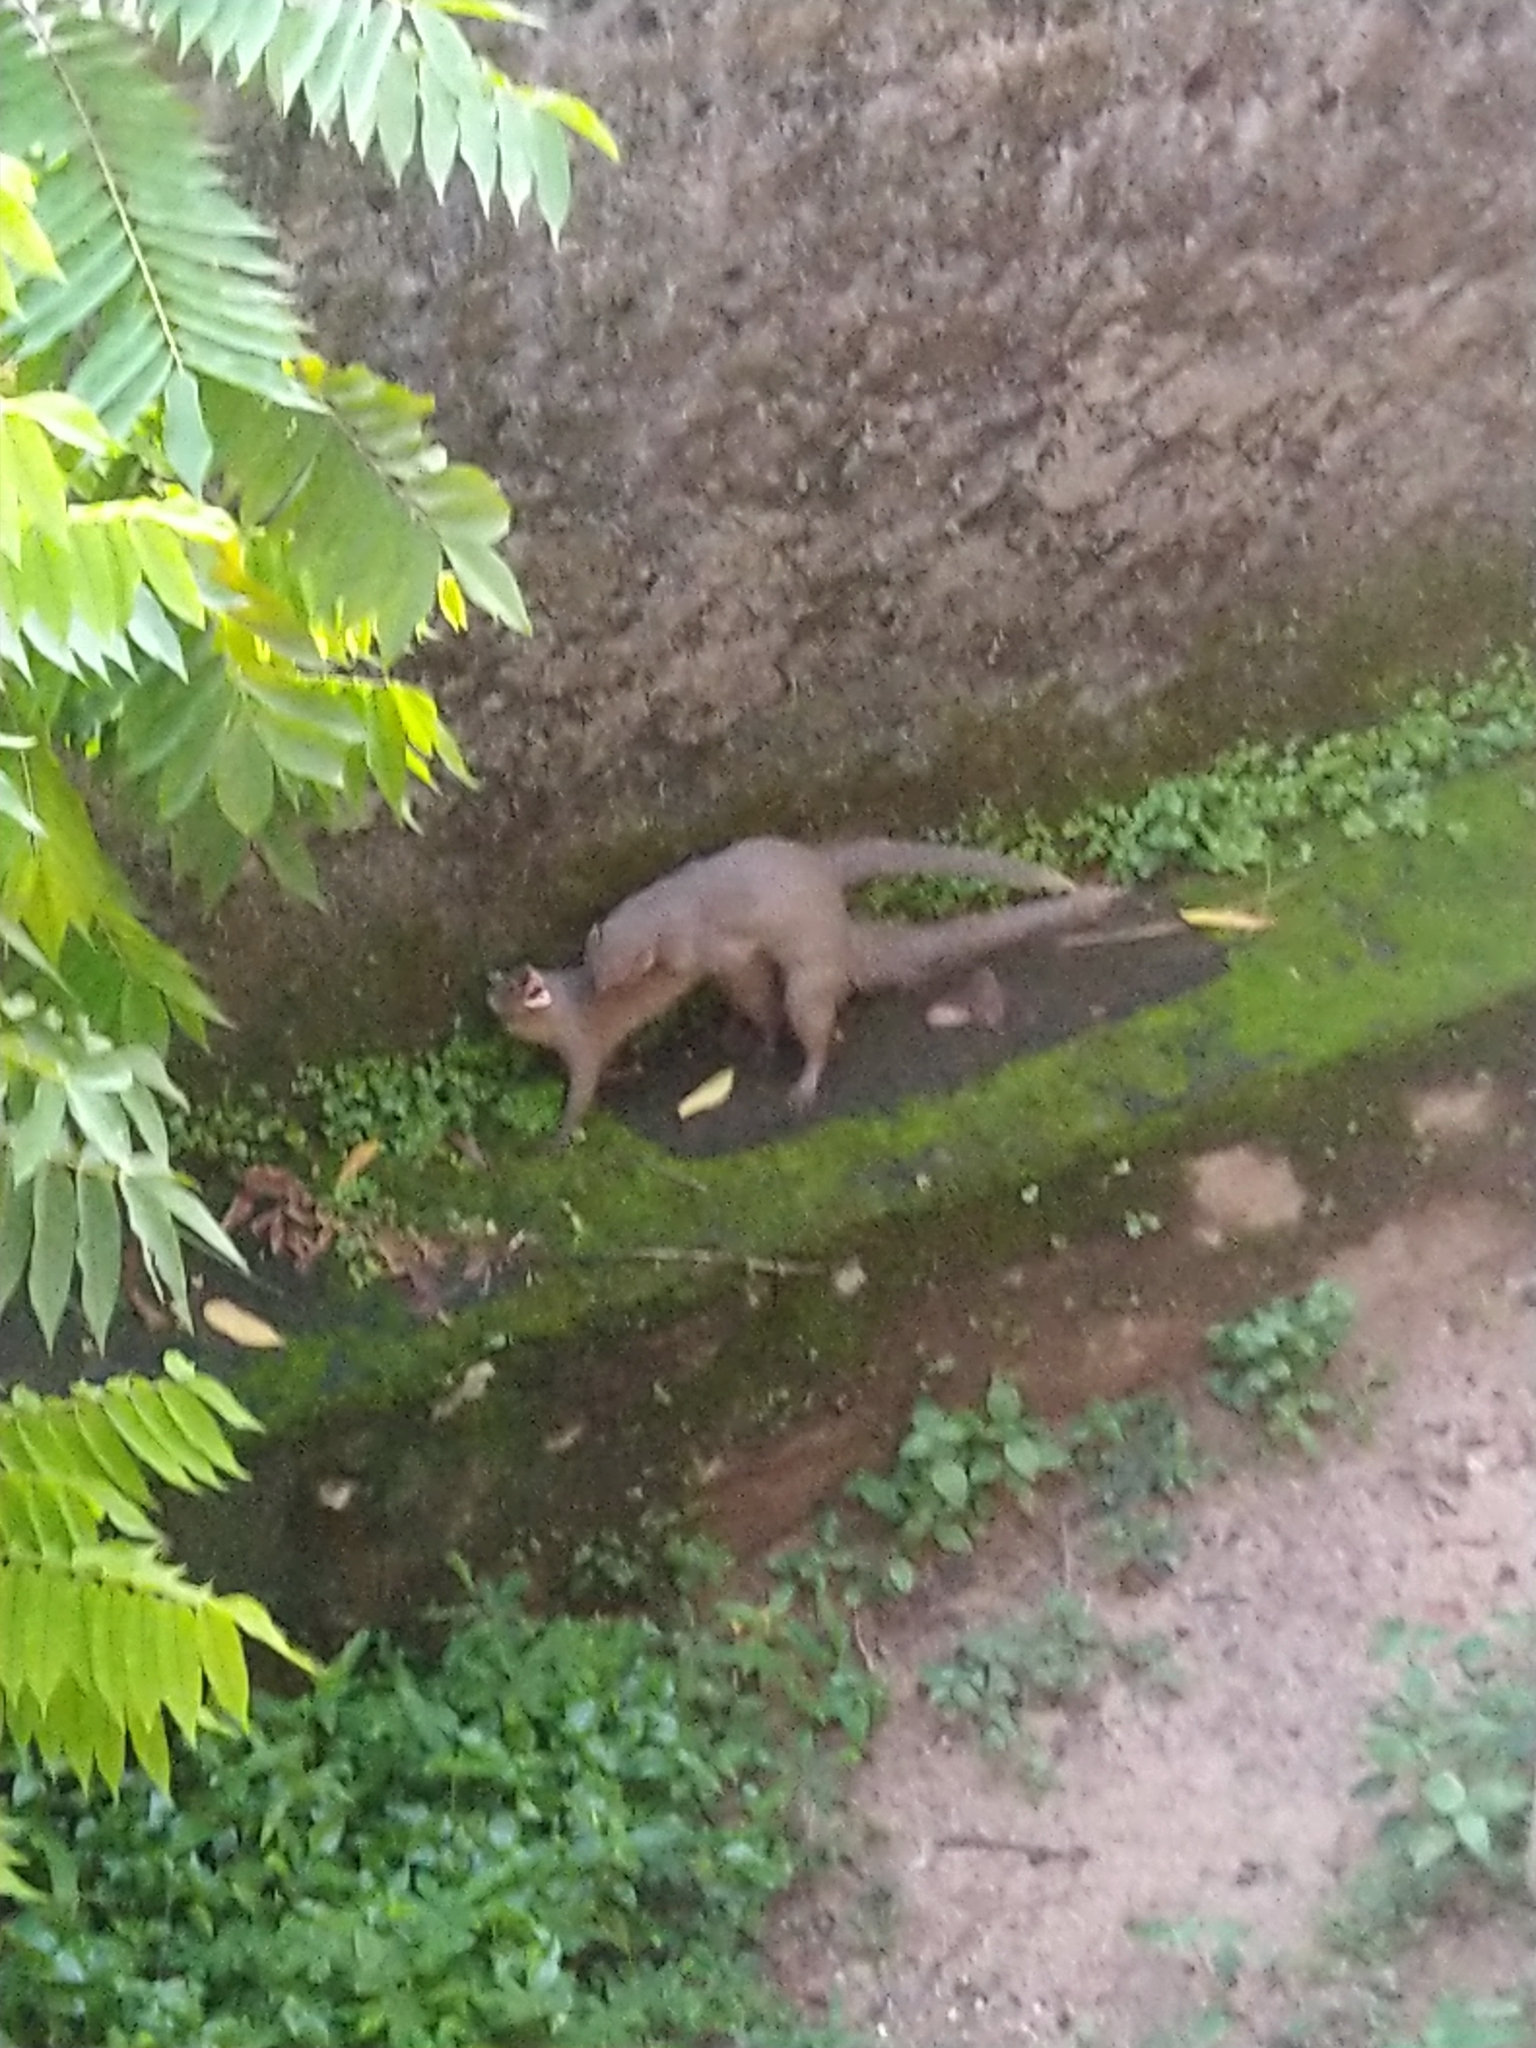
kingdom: Animalia
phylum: Chordata
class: Mammalia
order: Carnivora
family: Herpestidae
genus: Herpestes
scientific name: Herpestes edwardsi
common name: Indian gray mongoose
